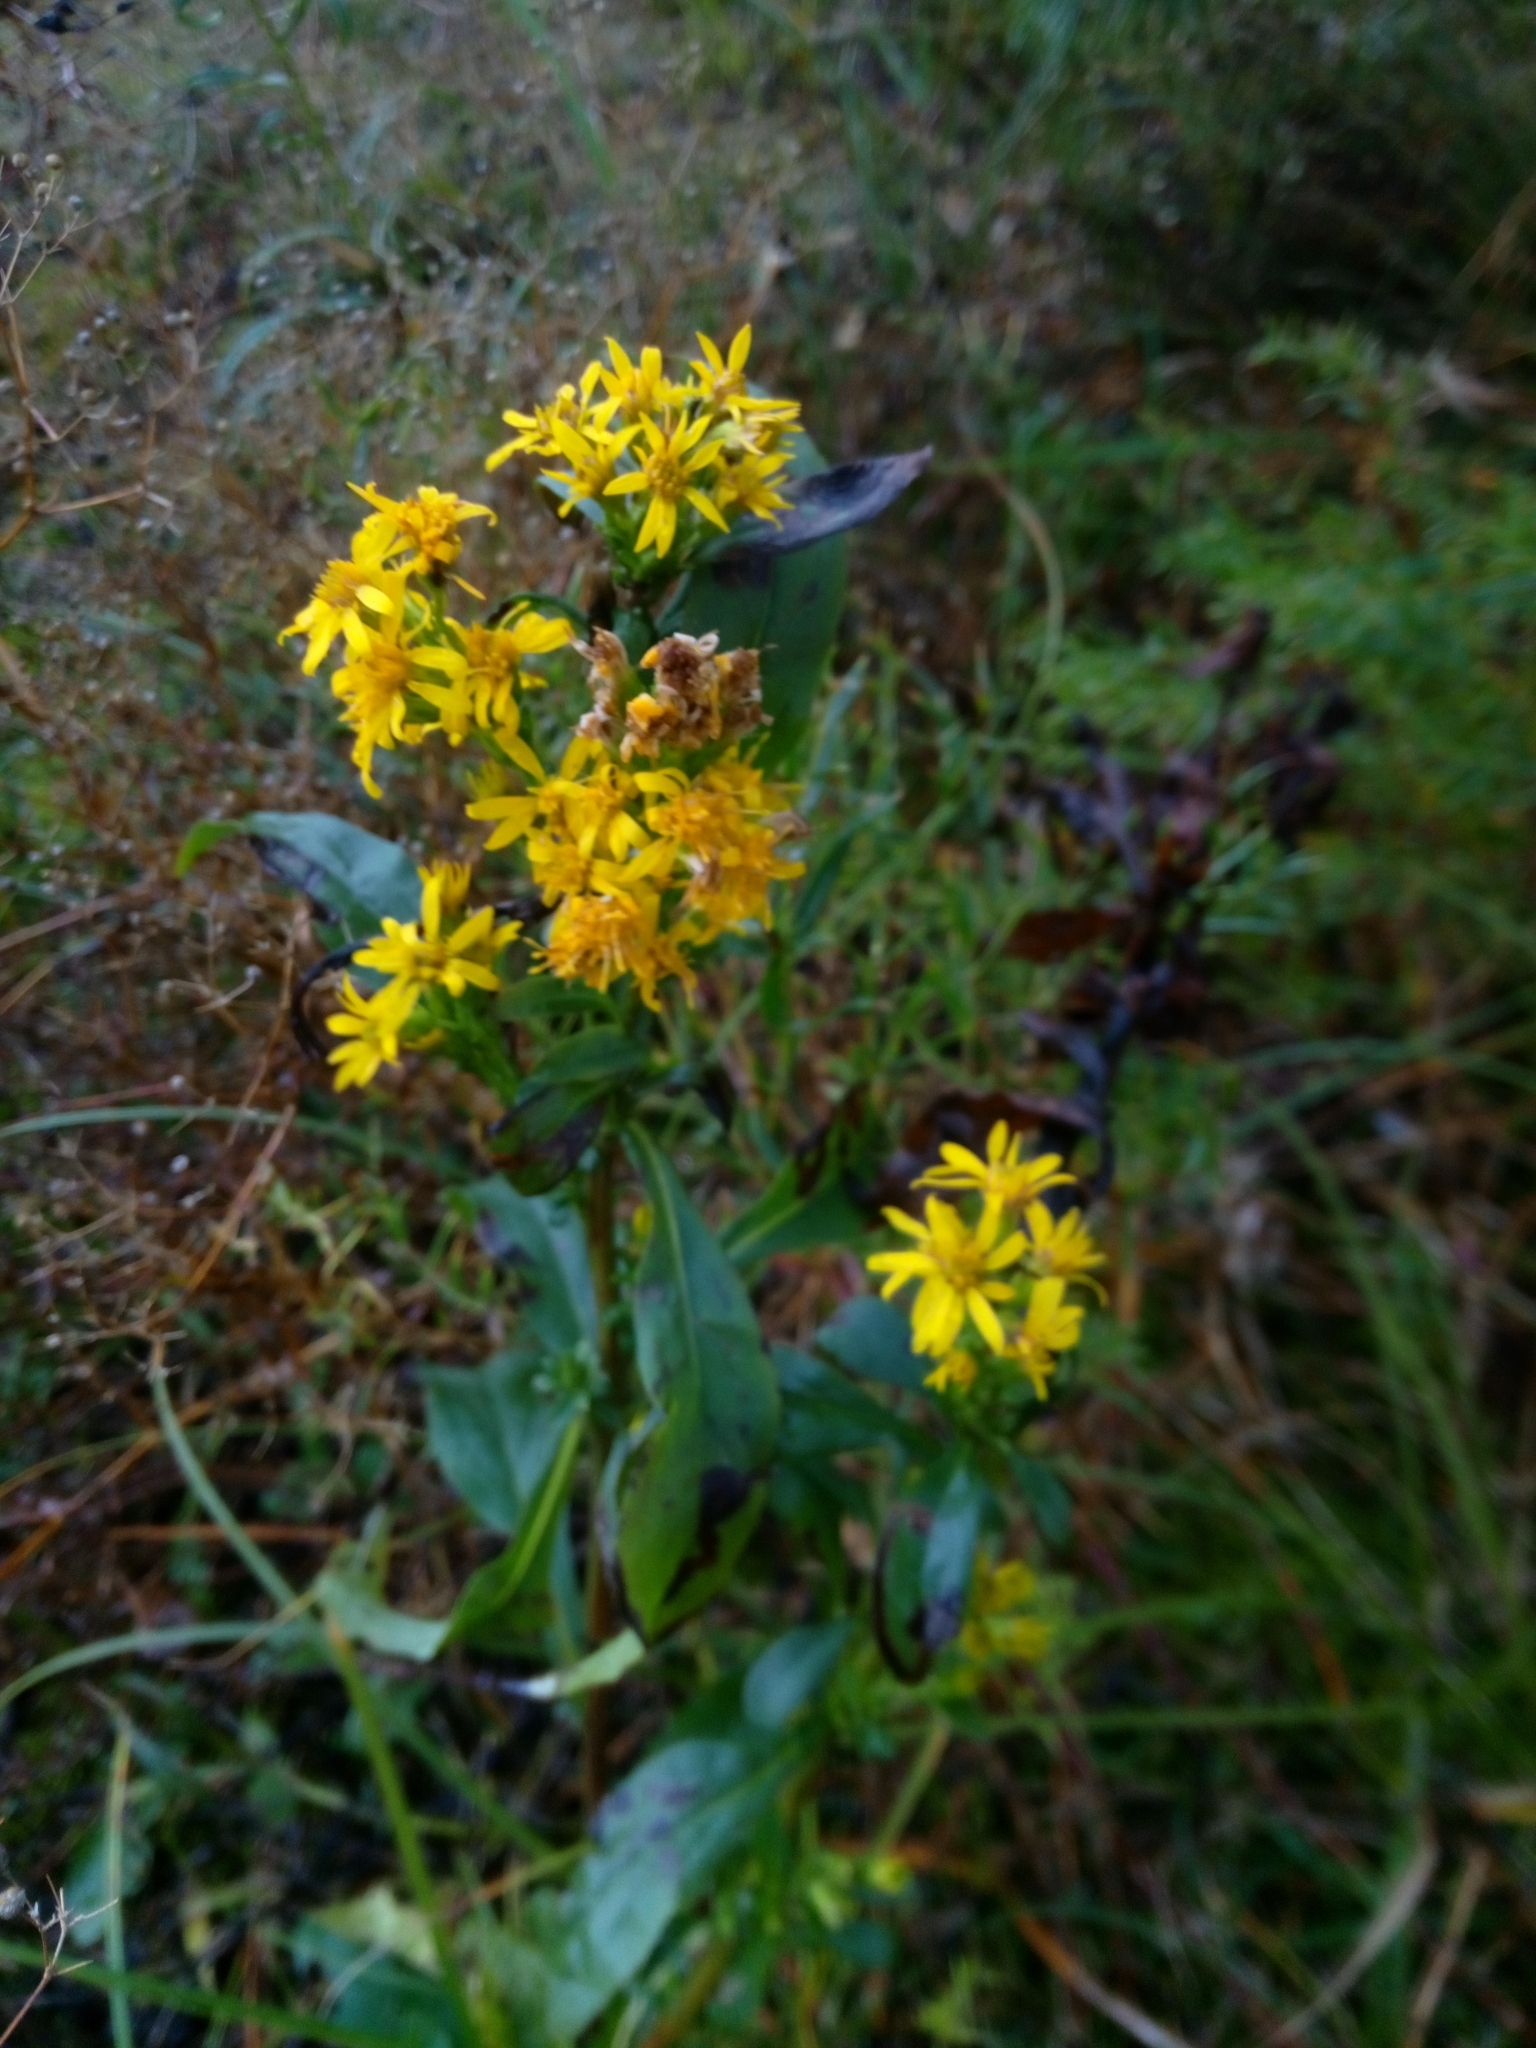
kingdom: Plantae
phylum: Tracheophyta
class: Magnoliopsida
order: Asterales
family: Asteraceae
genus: Solidago
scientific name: Solidago virgaurea
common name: Goldenrod
